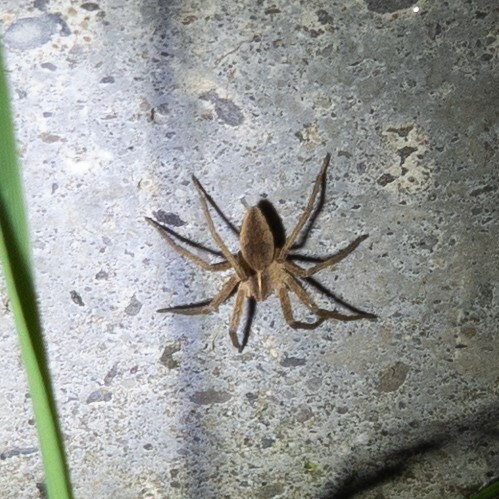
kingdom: Animalia
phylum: Arthropoda
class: Arachnida
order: Araneae
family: Pisauridae
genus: Pisaura
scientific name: Pisaura mirabilis
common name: Tent spider
